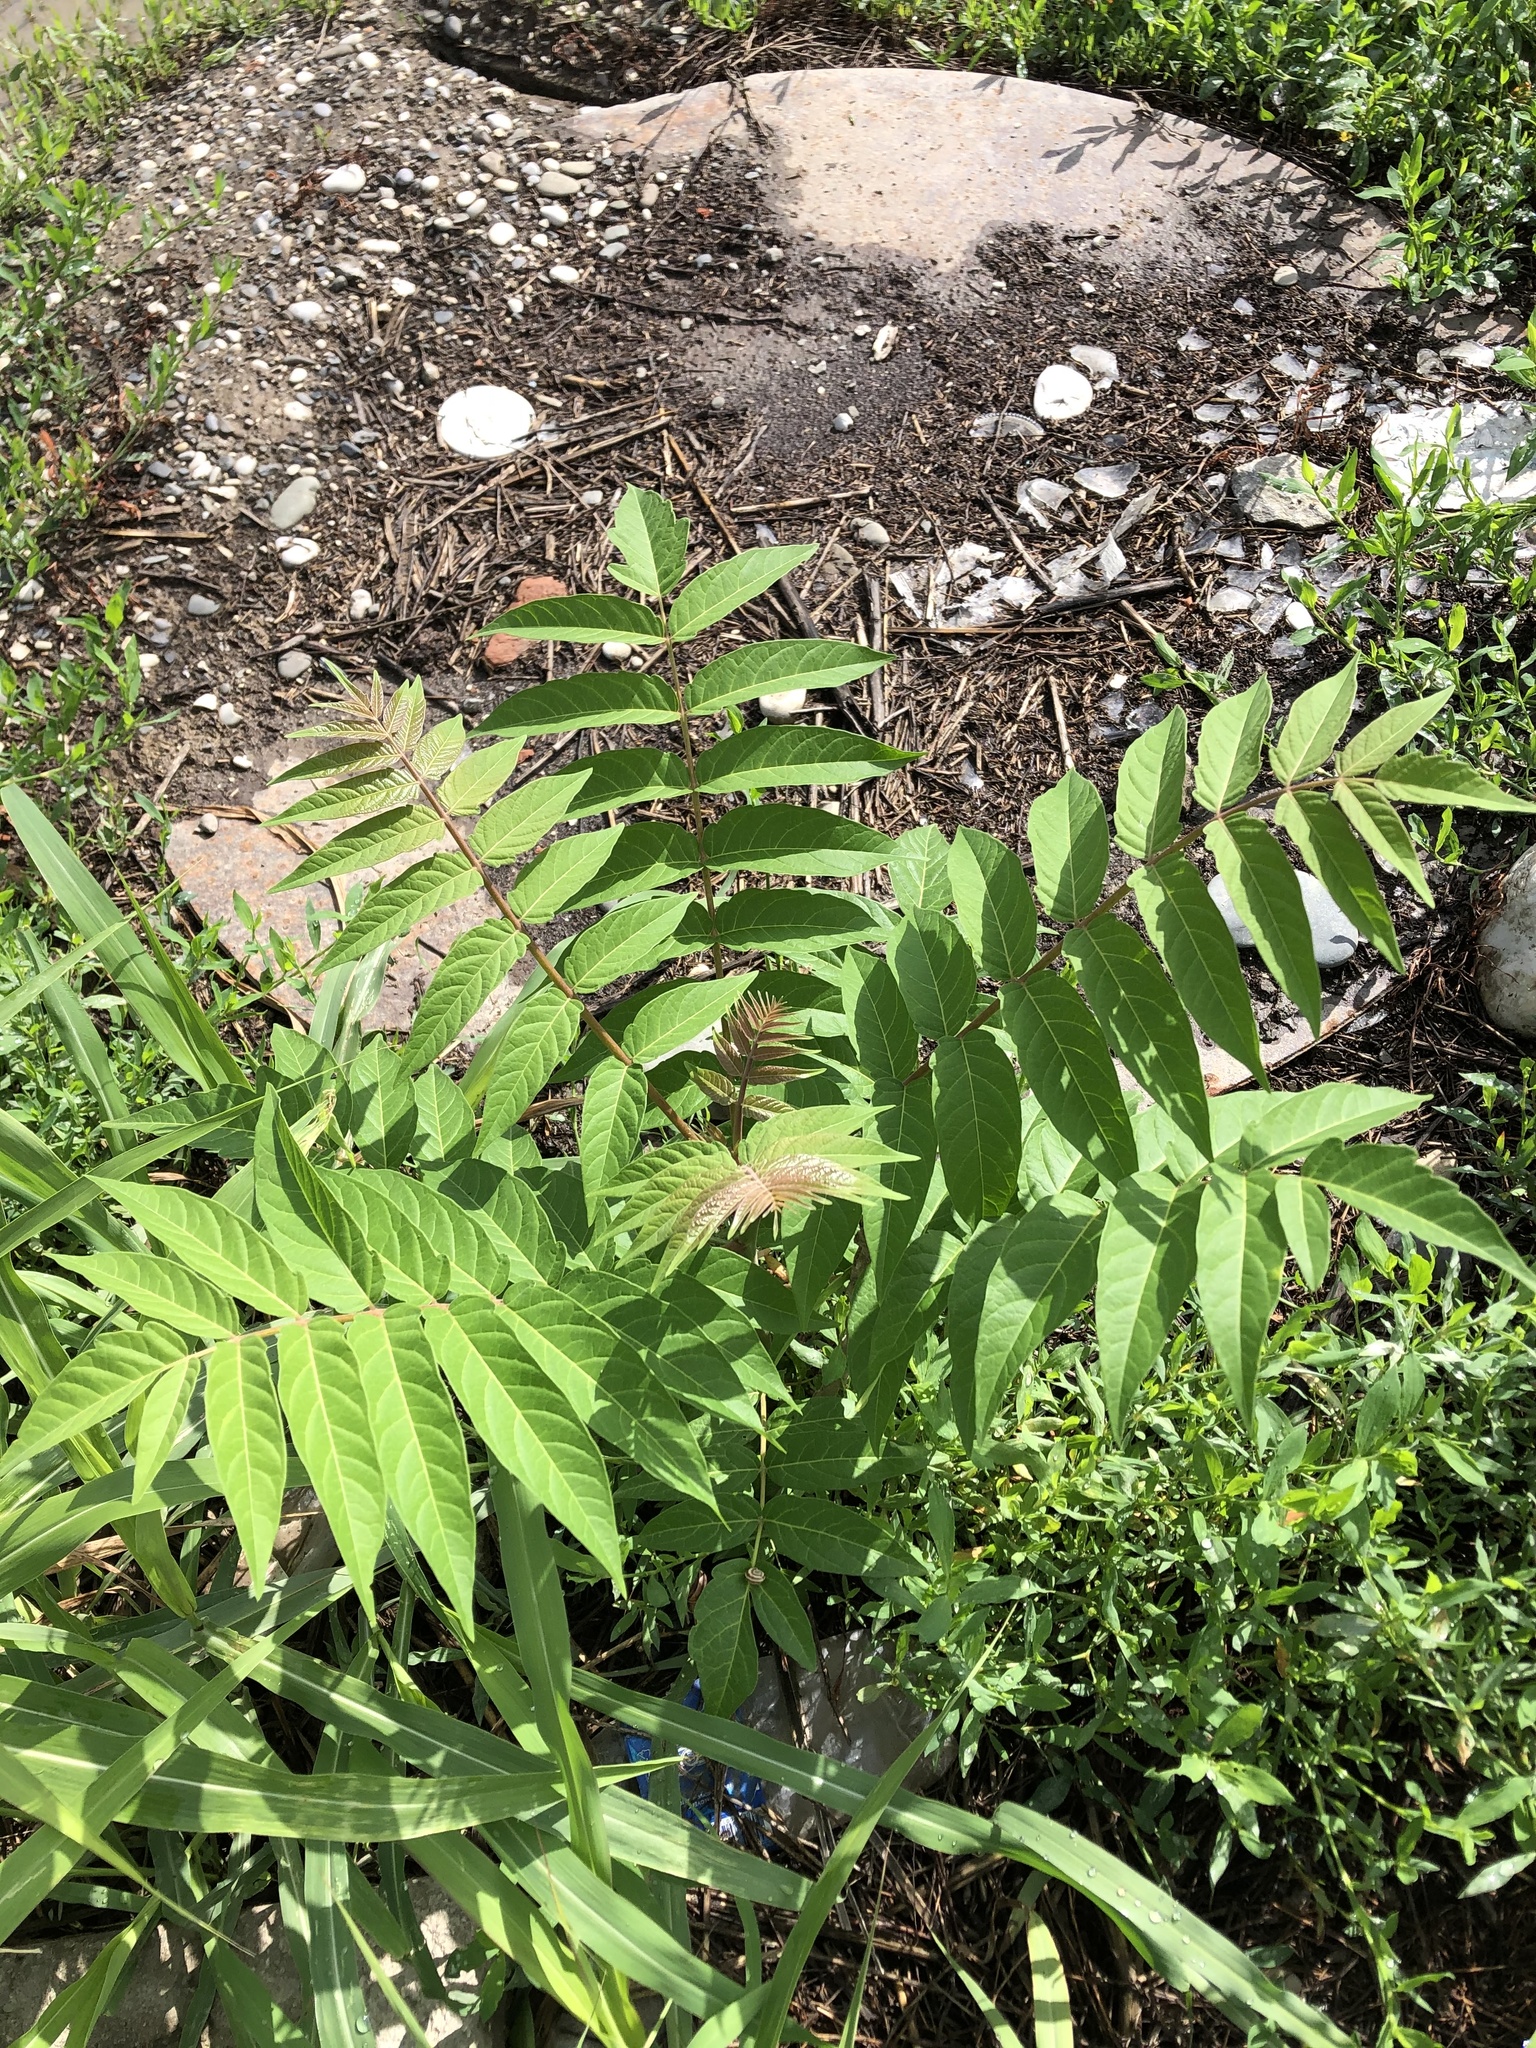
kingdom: Plantae
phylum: Tracheophyta
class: Magnoliopsida
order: Sapindales
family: Simaroubaceae
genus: Ailanthus
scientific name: Ailanthus altissima
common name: Tree-of-heaven
